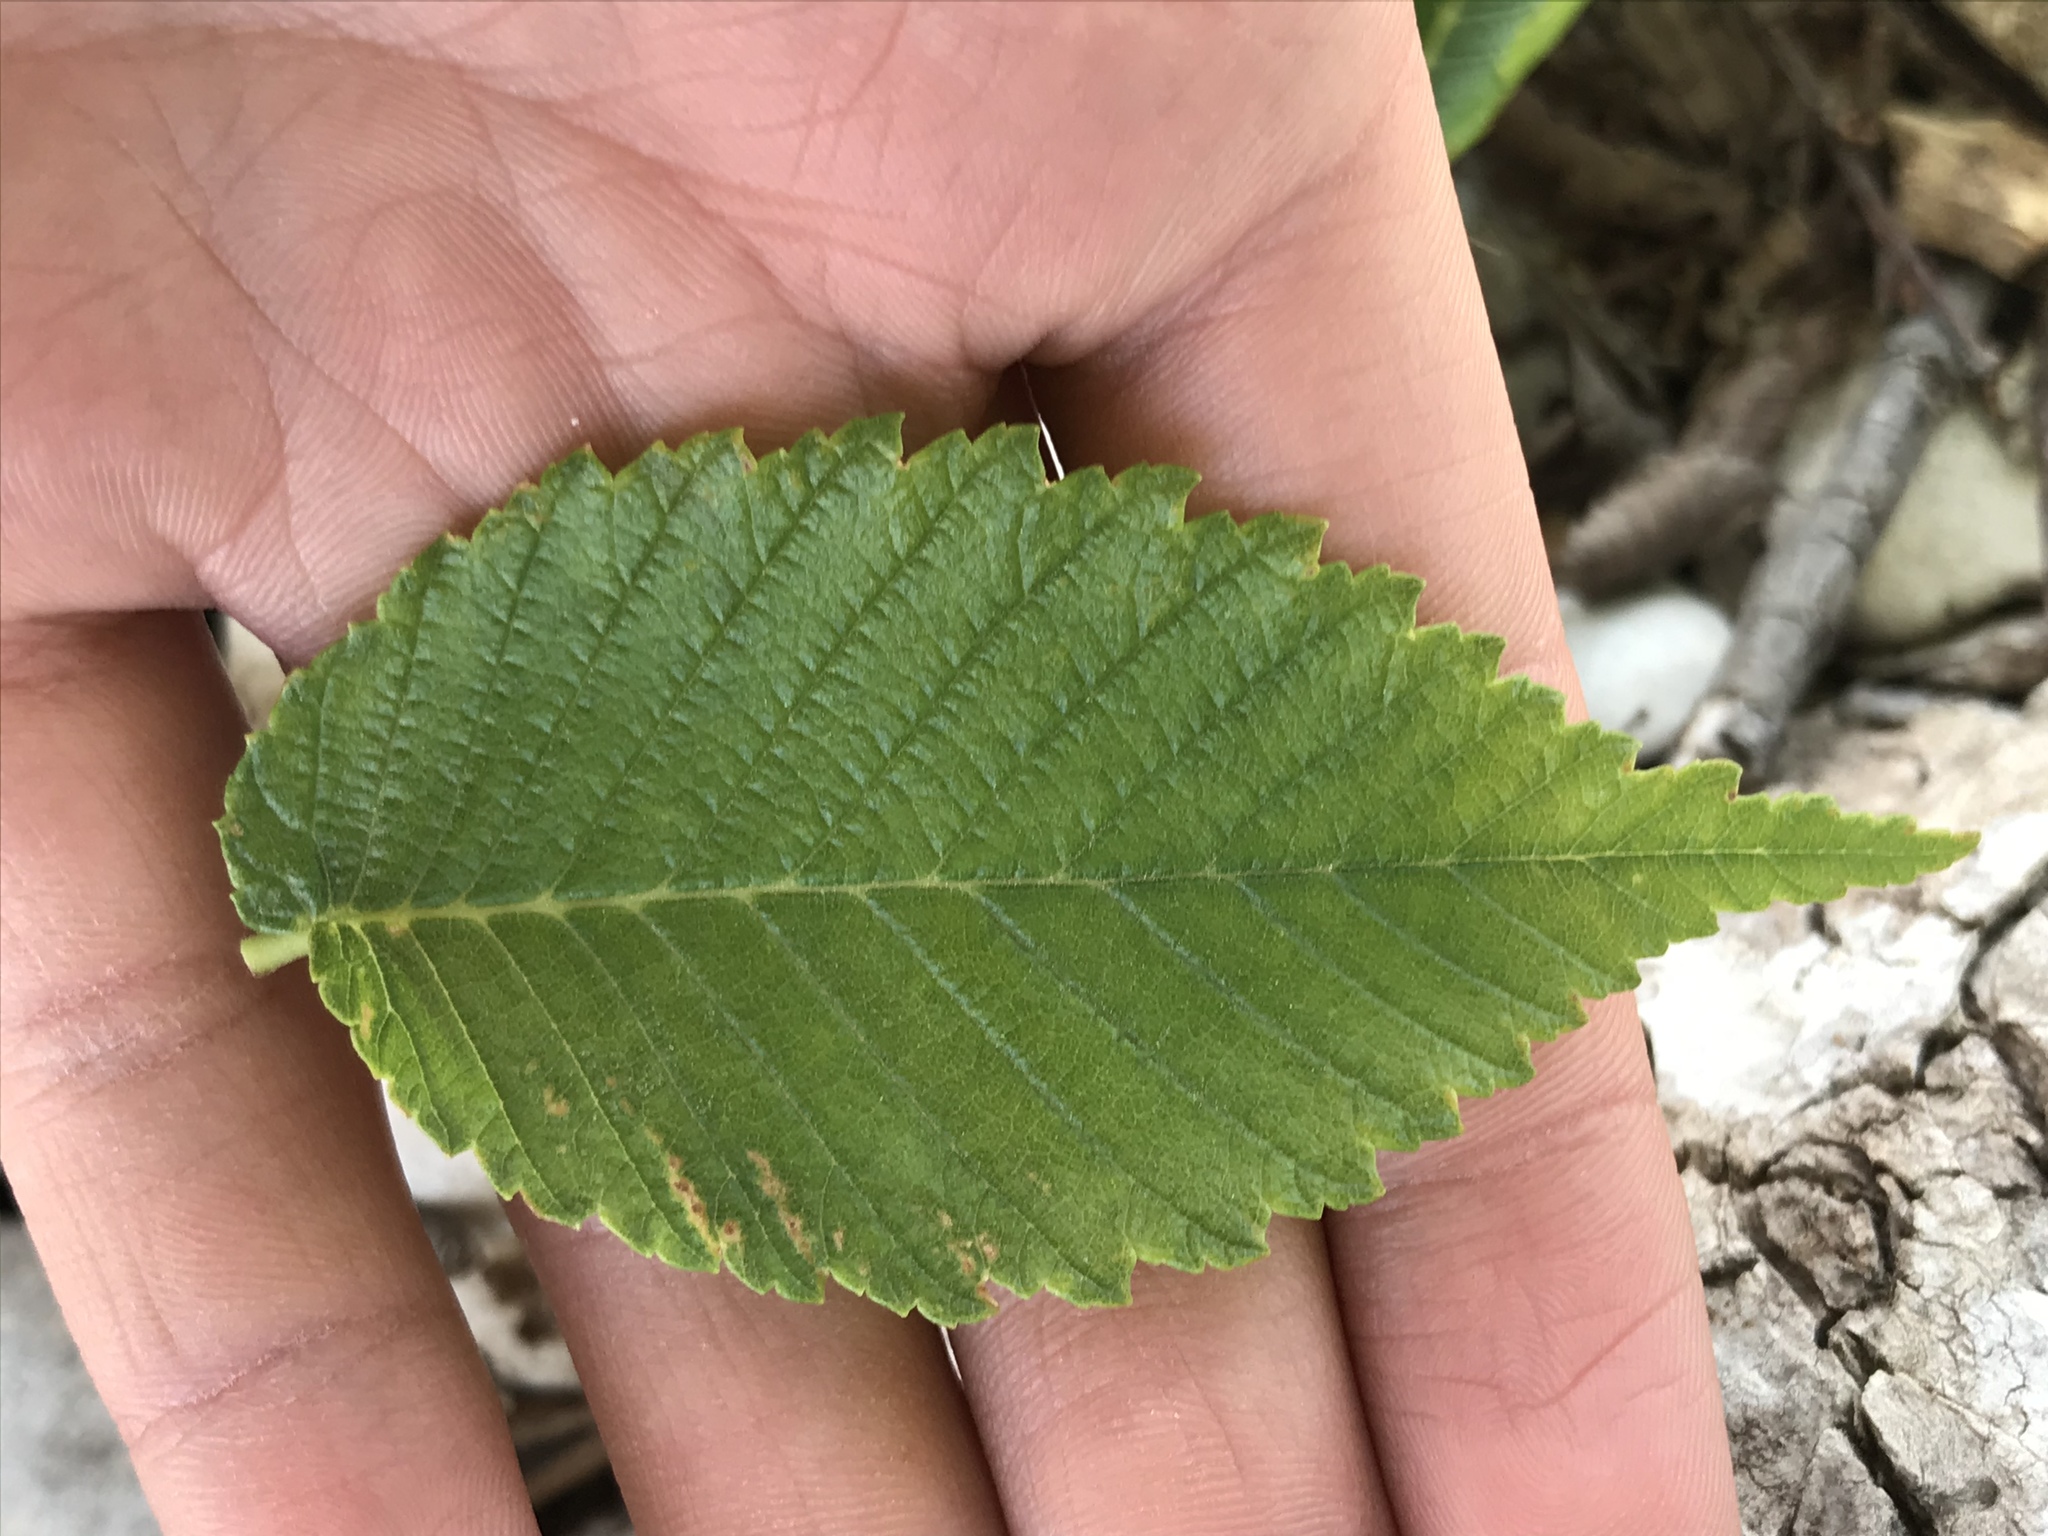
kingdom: Plantae
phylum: Tracheophyta
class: Magnoliopsida
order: Rosales
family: Ulmaceae
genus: Ulmus
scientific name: Ulmus americana
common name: American elm
